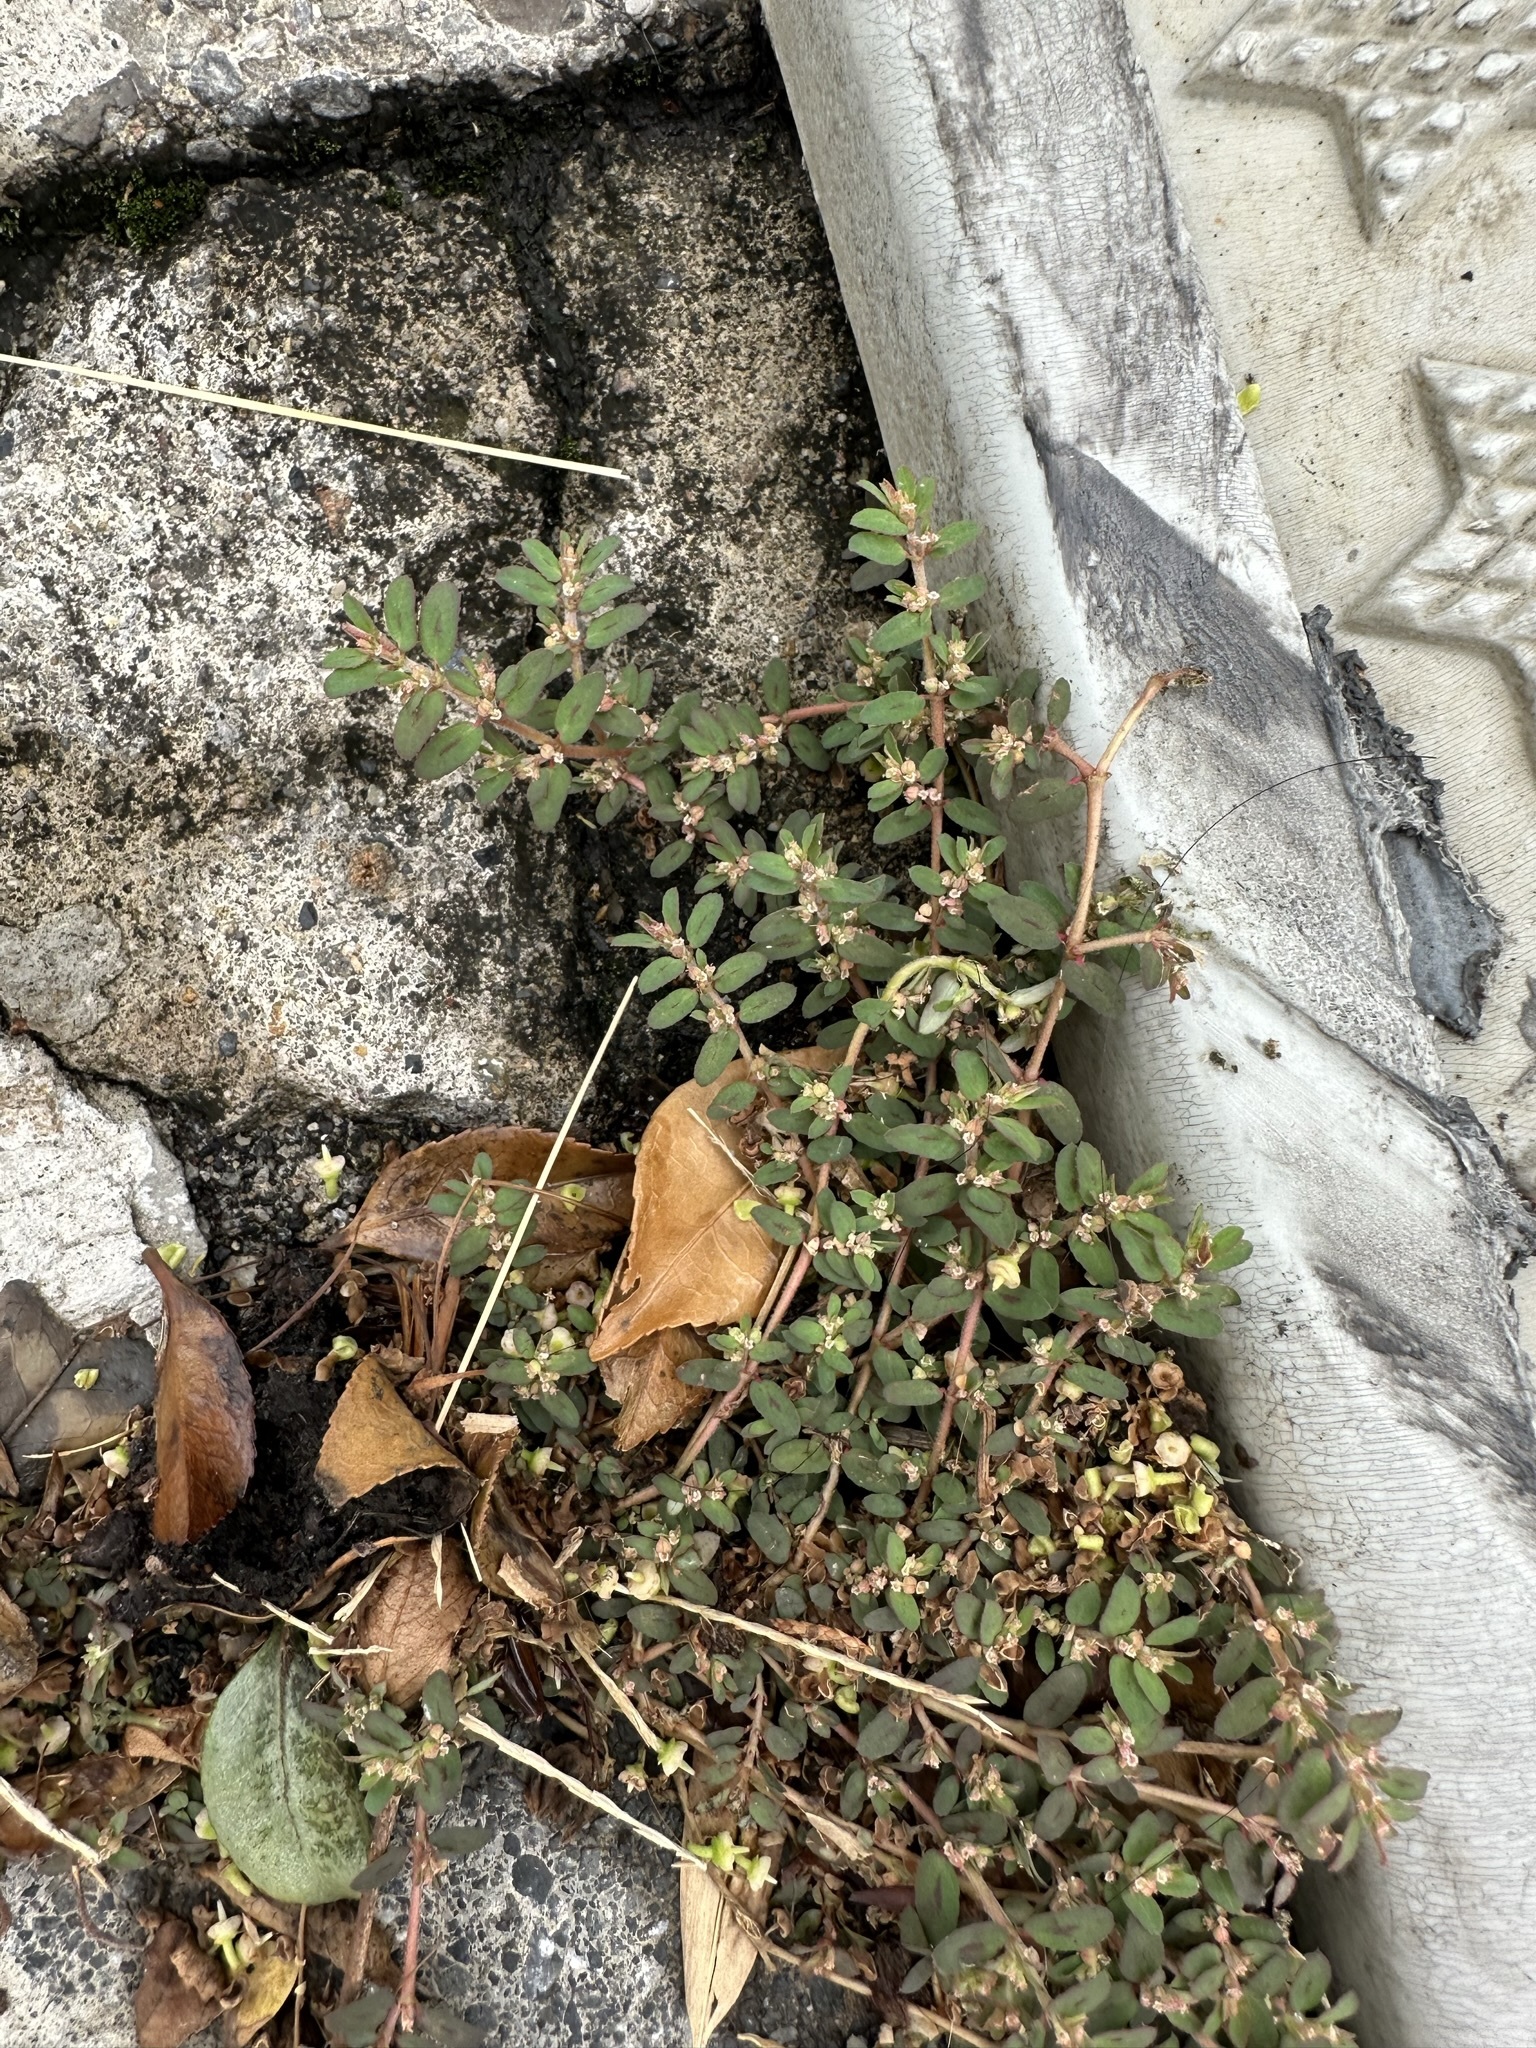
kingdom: Plantae
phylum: Tracheophyta
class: Magnoliopsida
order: Malpighiales
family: Euphorbiaceae
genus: Euphorbia
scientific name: Euphorbia maculata
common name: Spotted spurge
